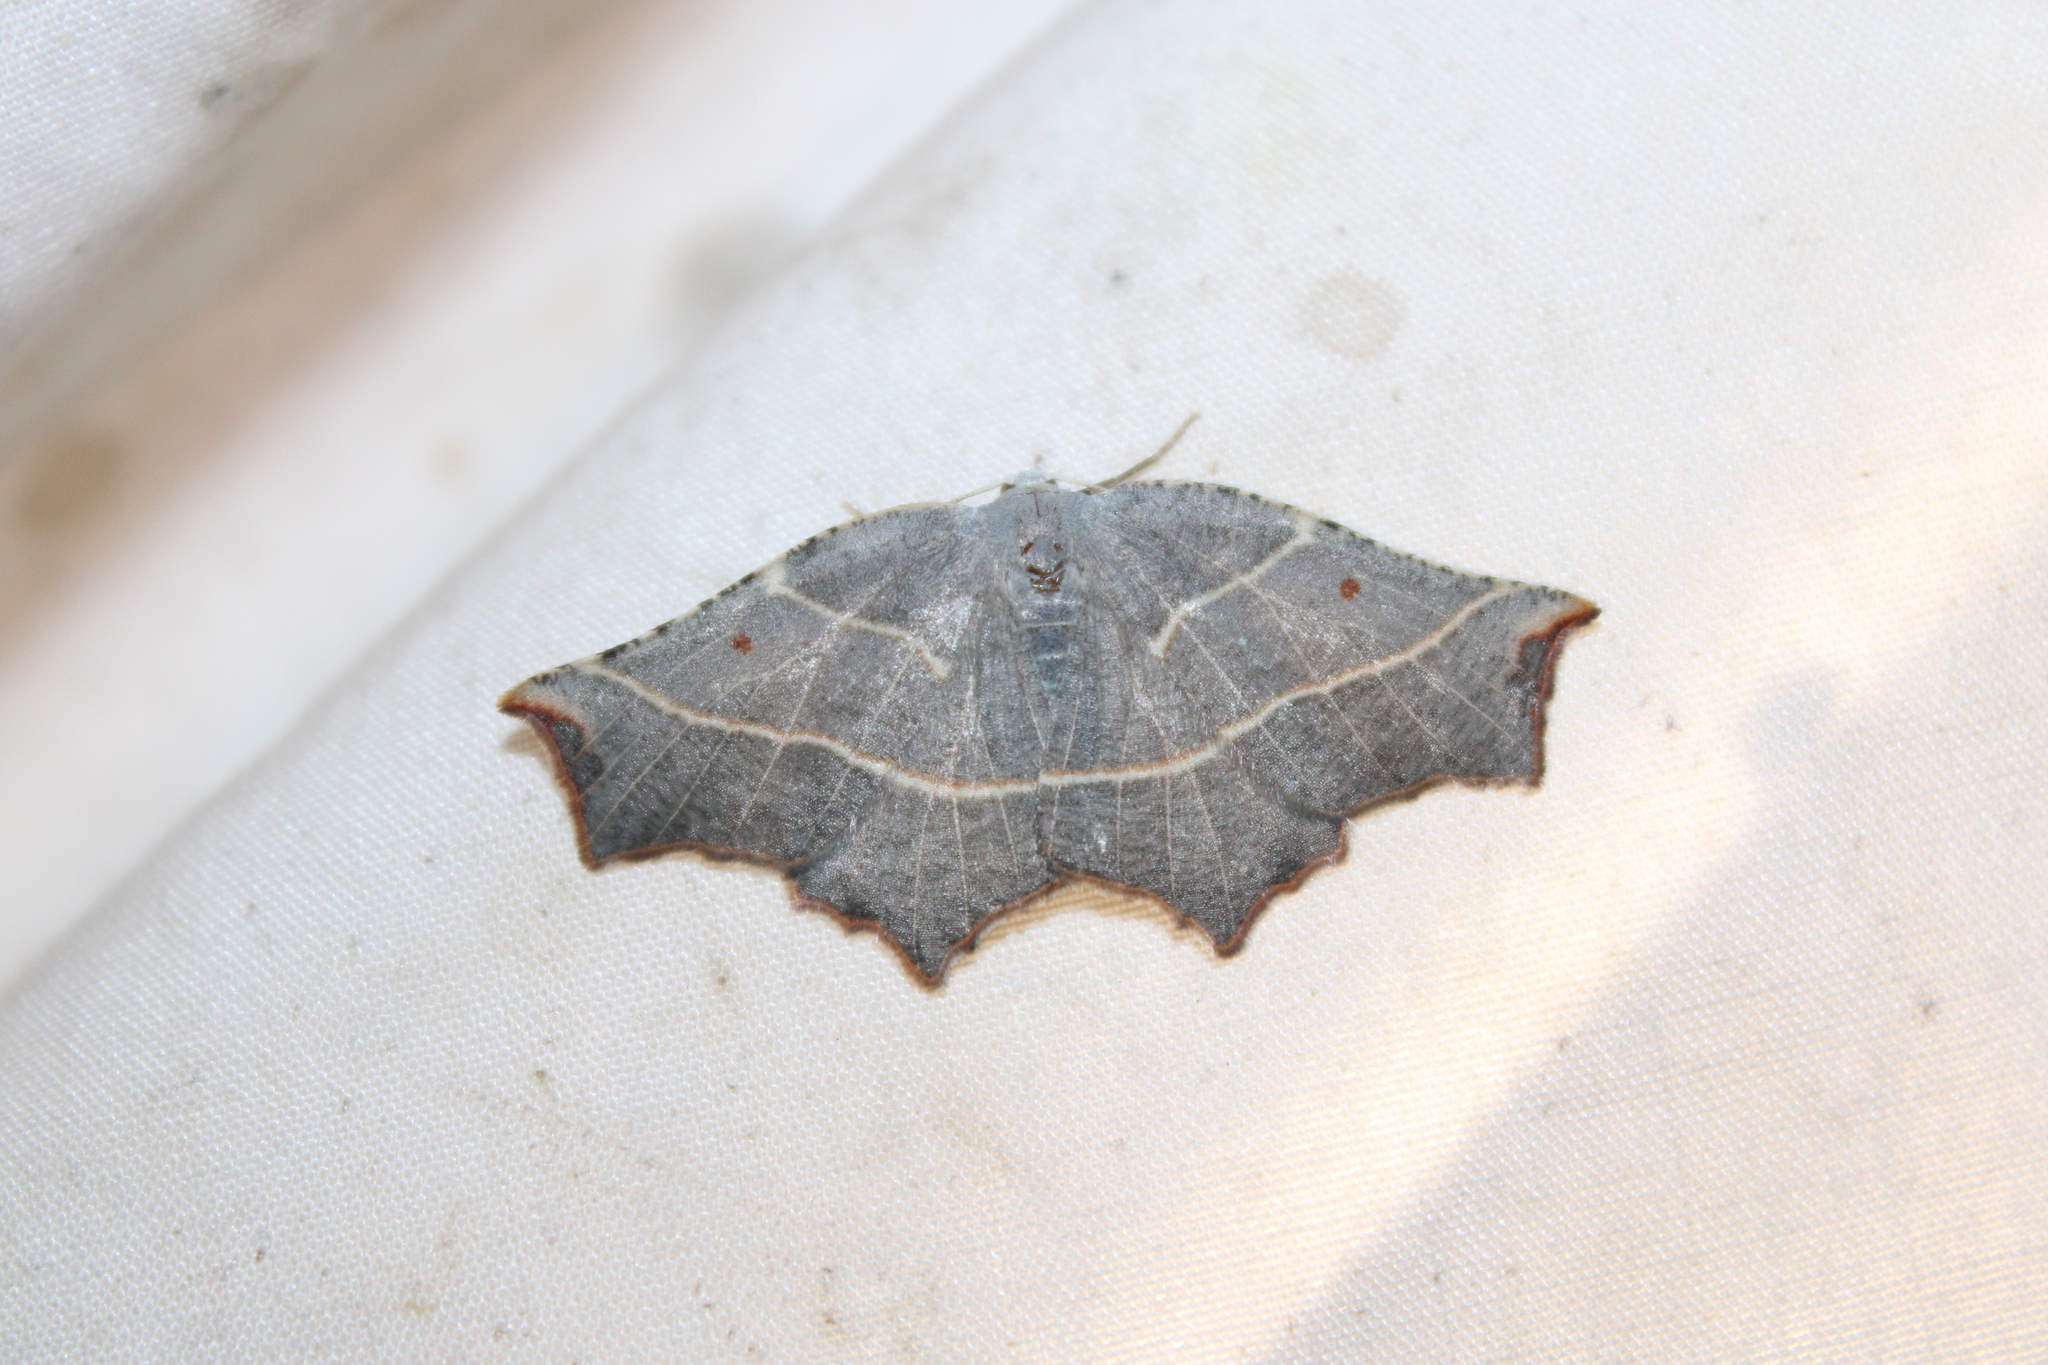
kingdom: Animalia
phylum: Arthropoda
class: Insecta
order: Lepidoptera
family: Geometridae
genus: Metanema
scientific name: Metanema inatomaria
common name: Pale metanema
